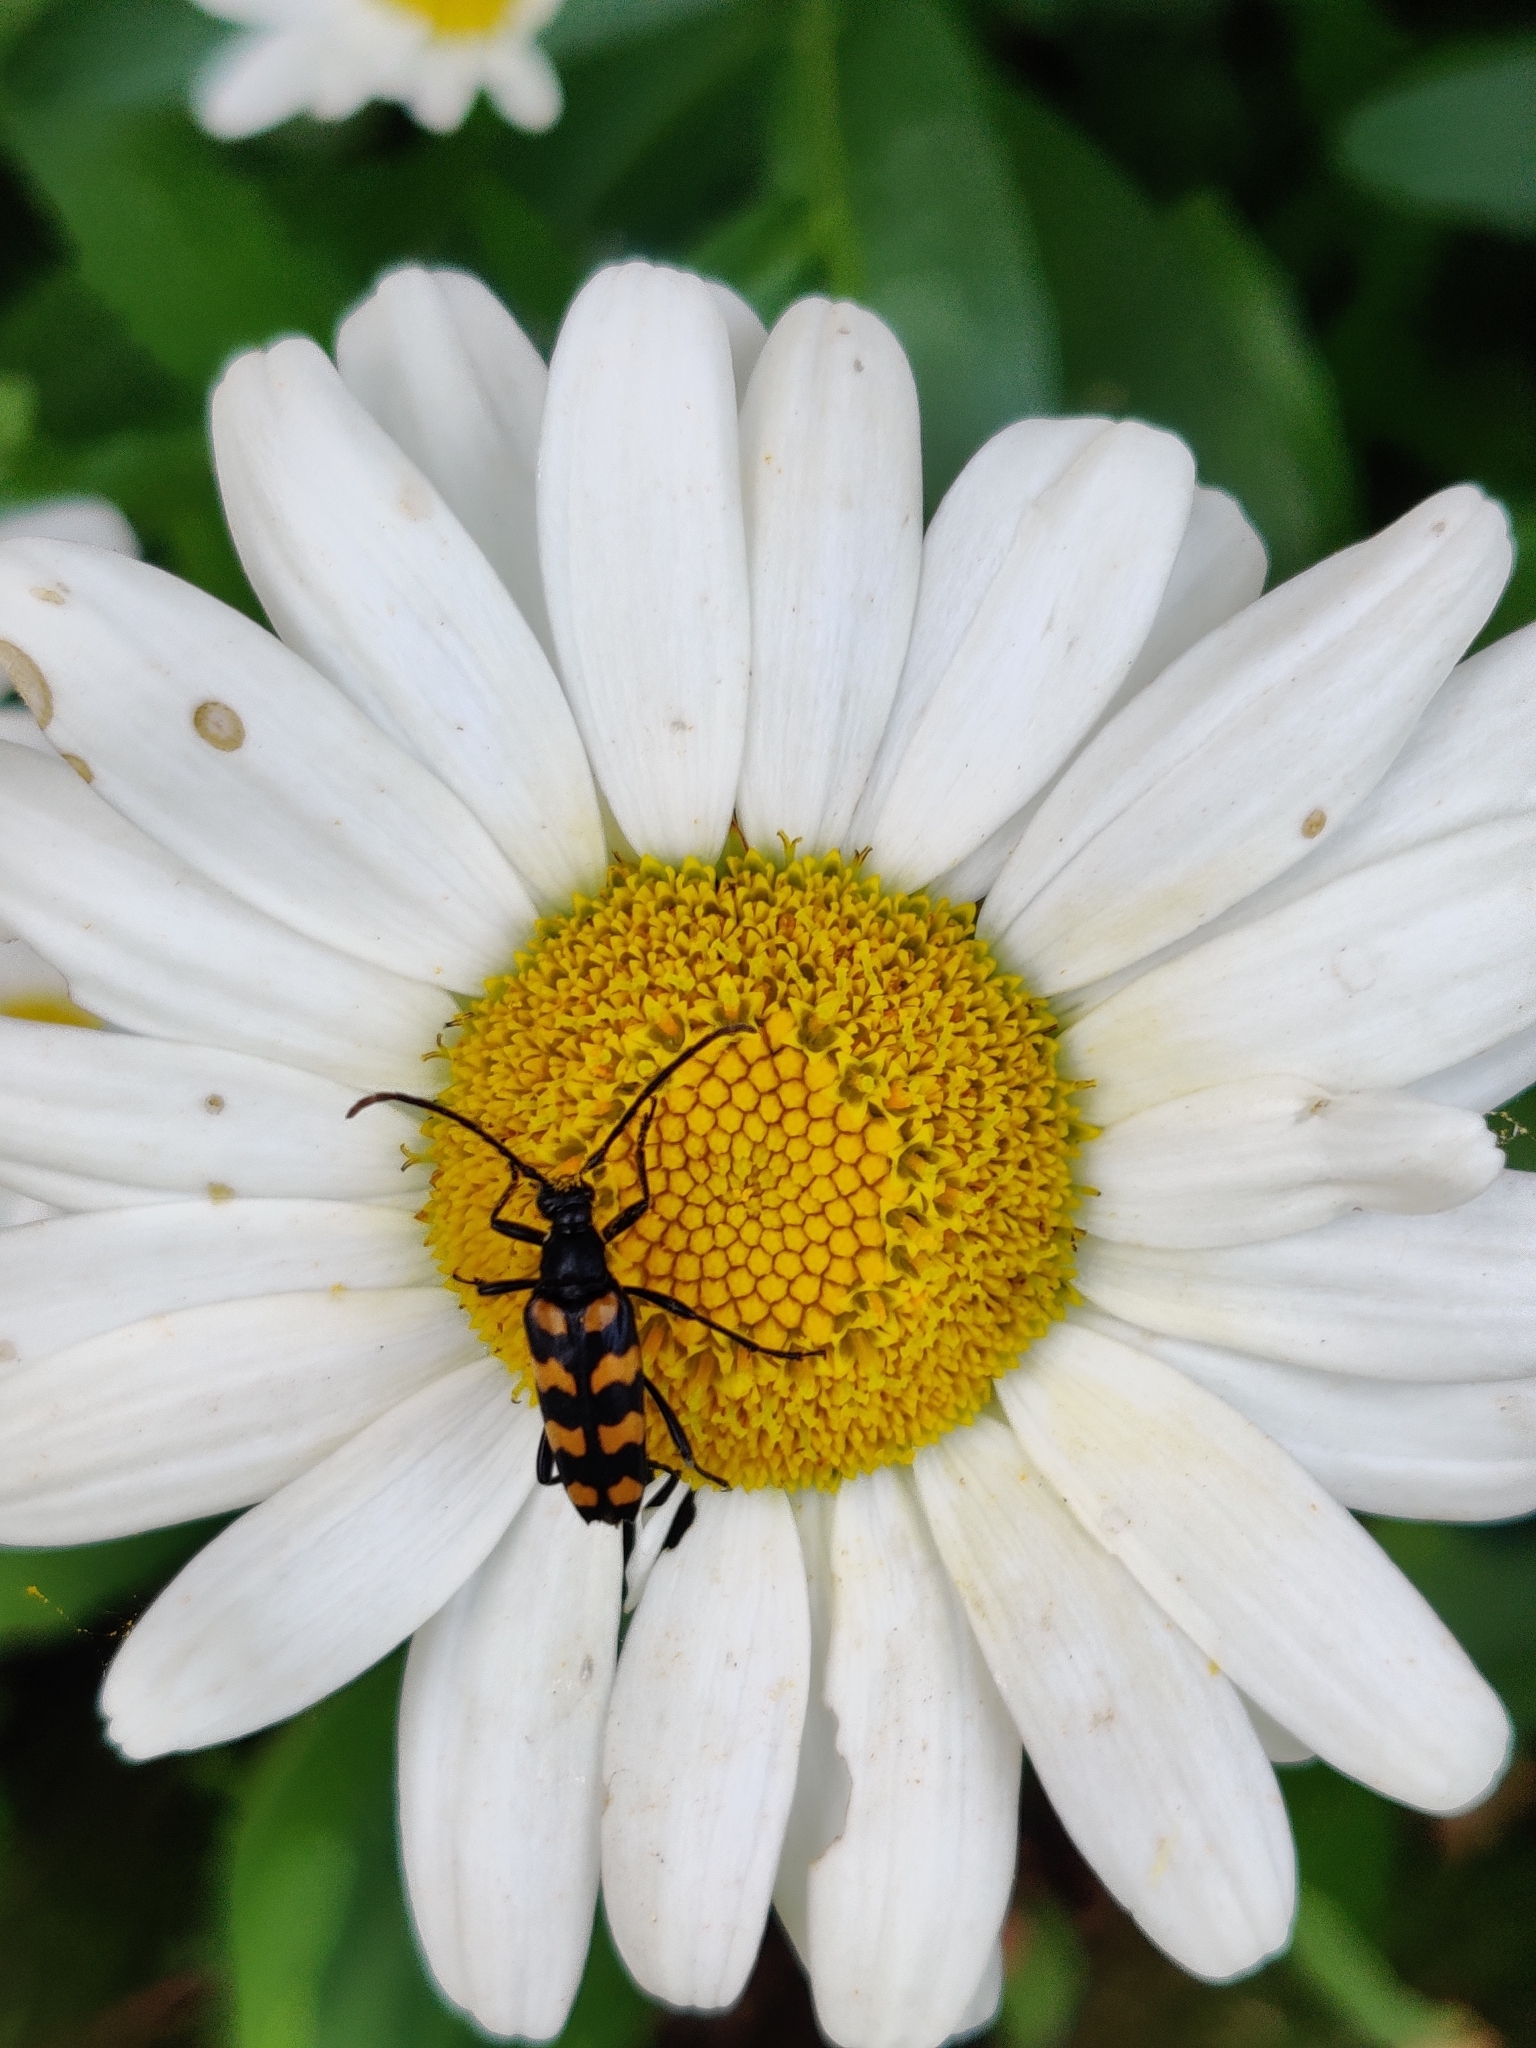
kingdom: Animalia
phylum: Arthropoda
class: Insecta
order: Coleoptera
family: Cerambycidae
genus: Leptura
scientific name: Leptura quadrifasciata
